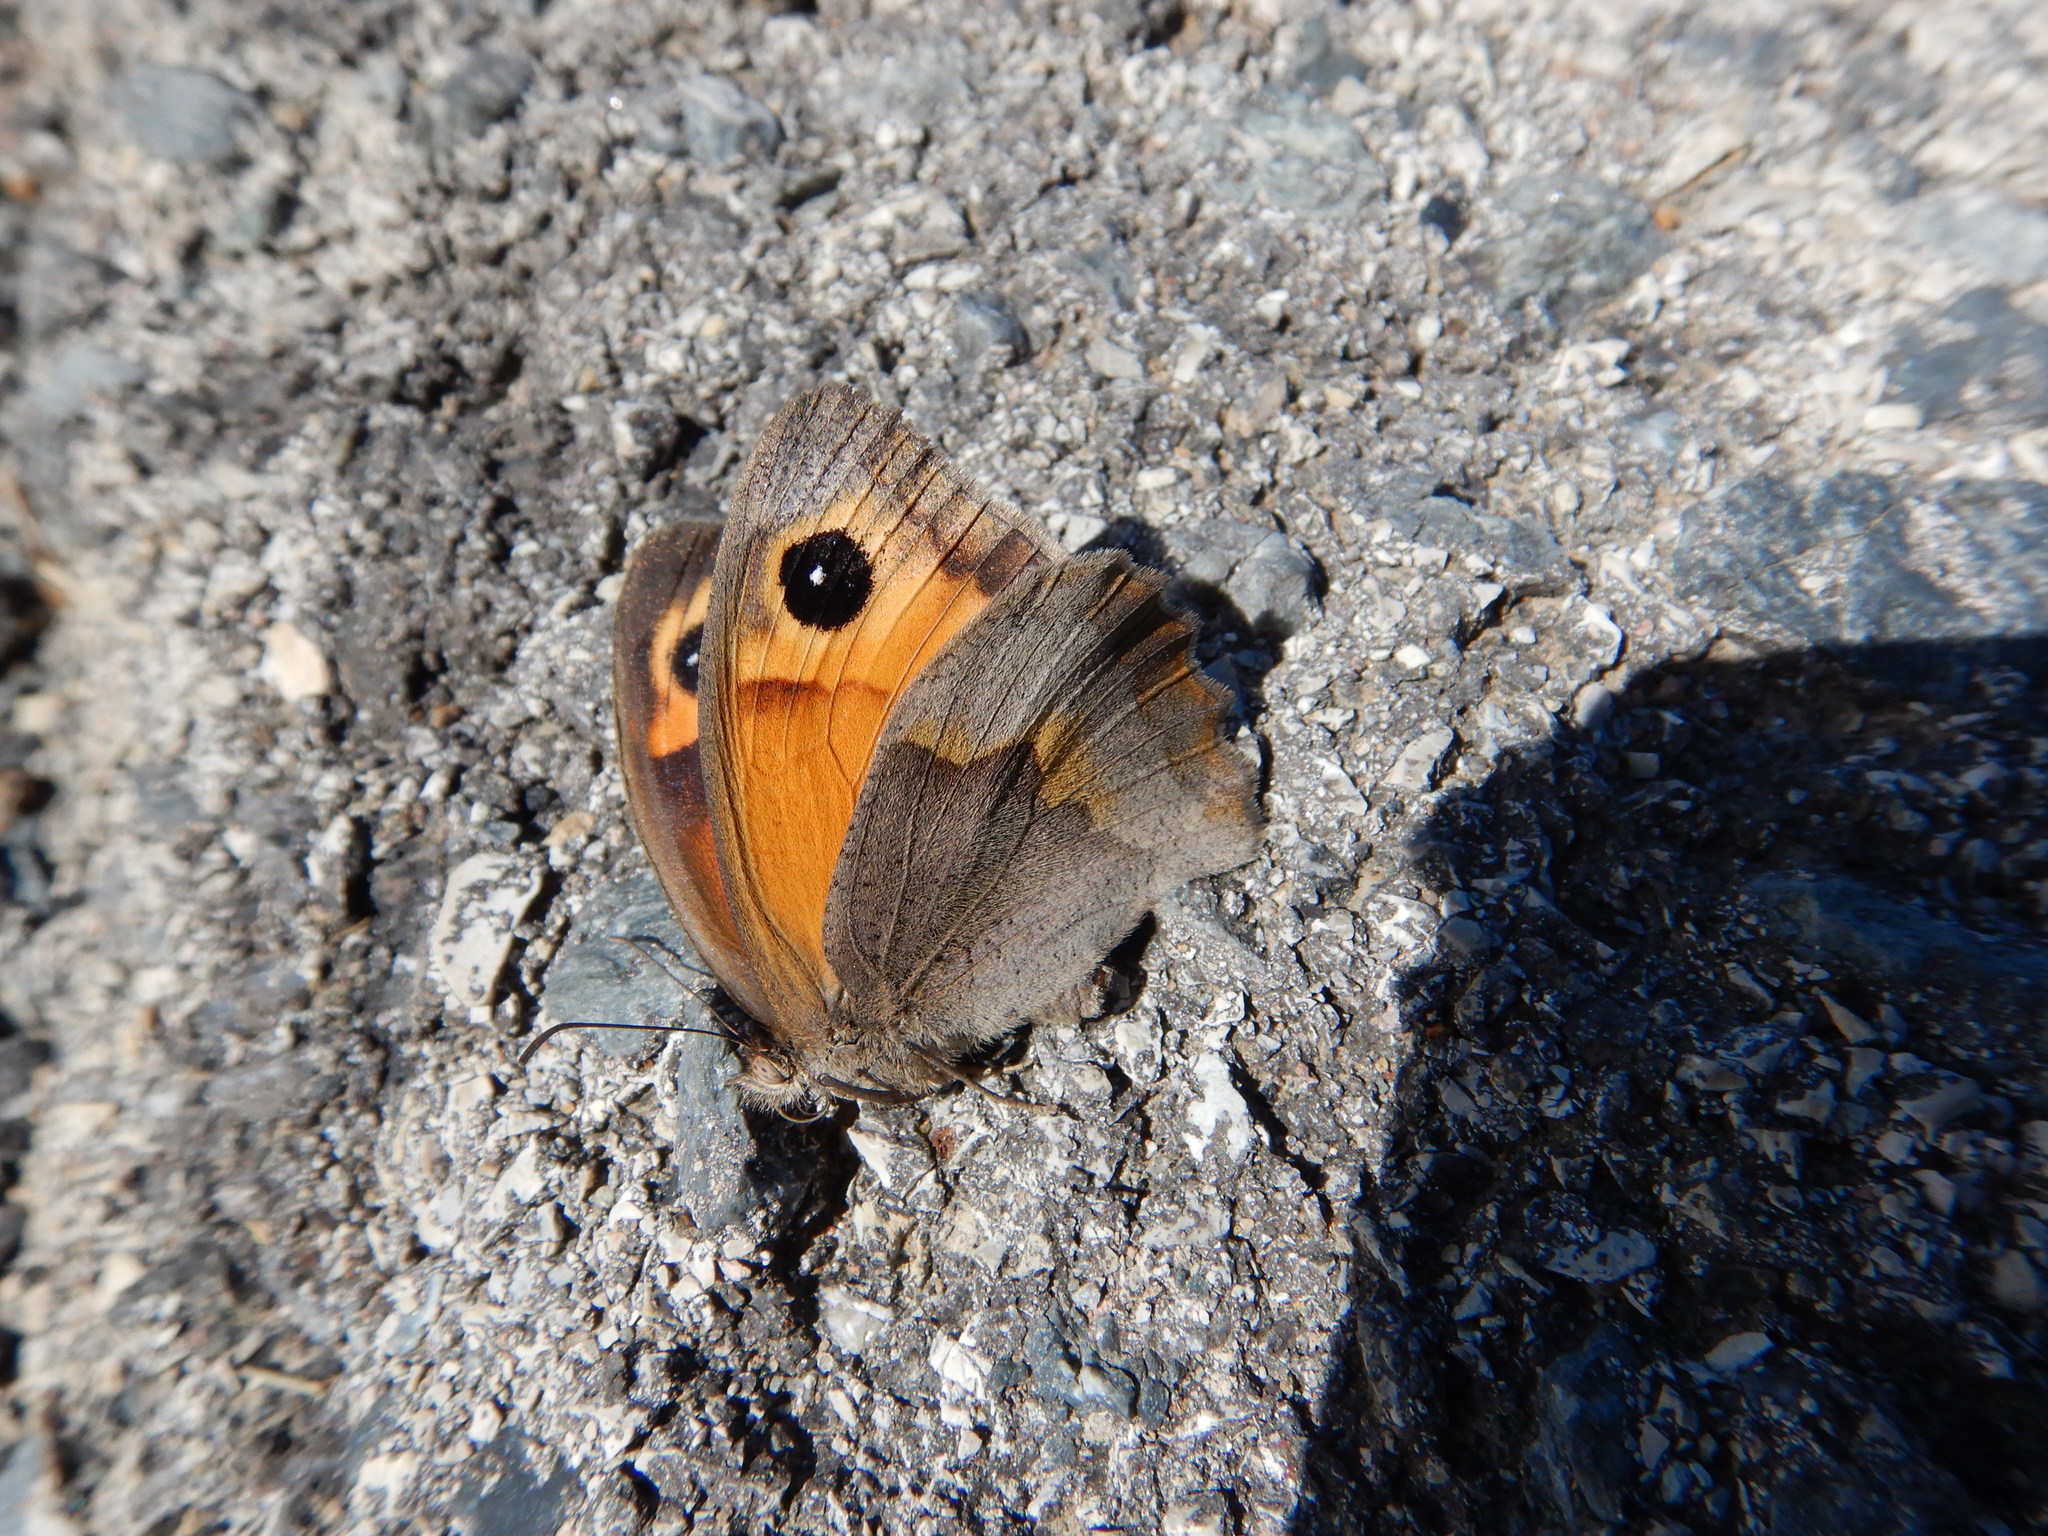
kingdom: Animalia
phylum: Arthropoda
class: Insecta
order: Lepidoptera
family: Nymphalidae
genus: Maniola
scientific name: Maniola jurtina
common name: Meadow brown
